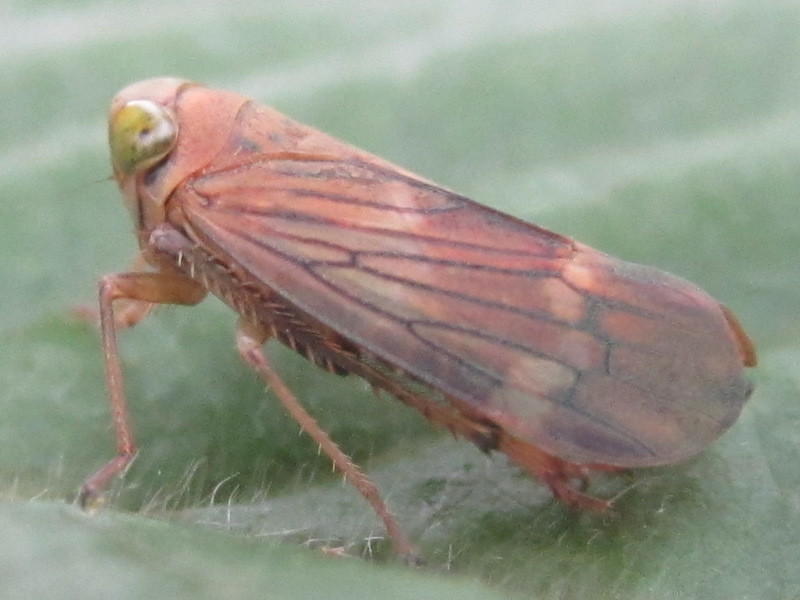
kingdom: Animalia
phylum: Arthropoda
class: Insecta
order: Hemiptera
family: Cicadellidae
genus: Jikradia
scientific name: Jikradia olitoria
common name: Coppery leafhopper
